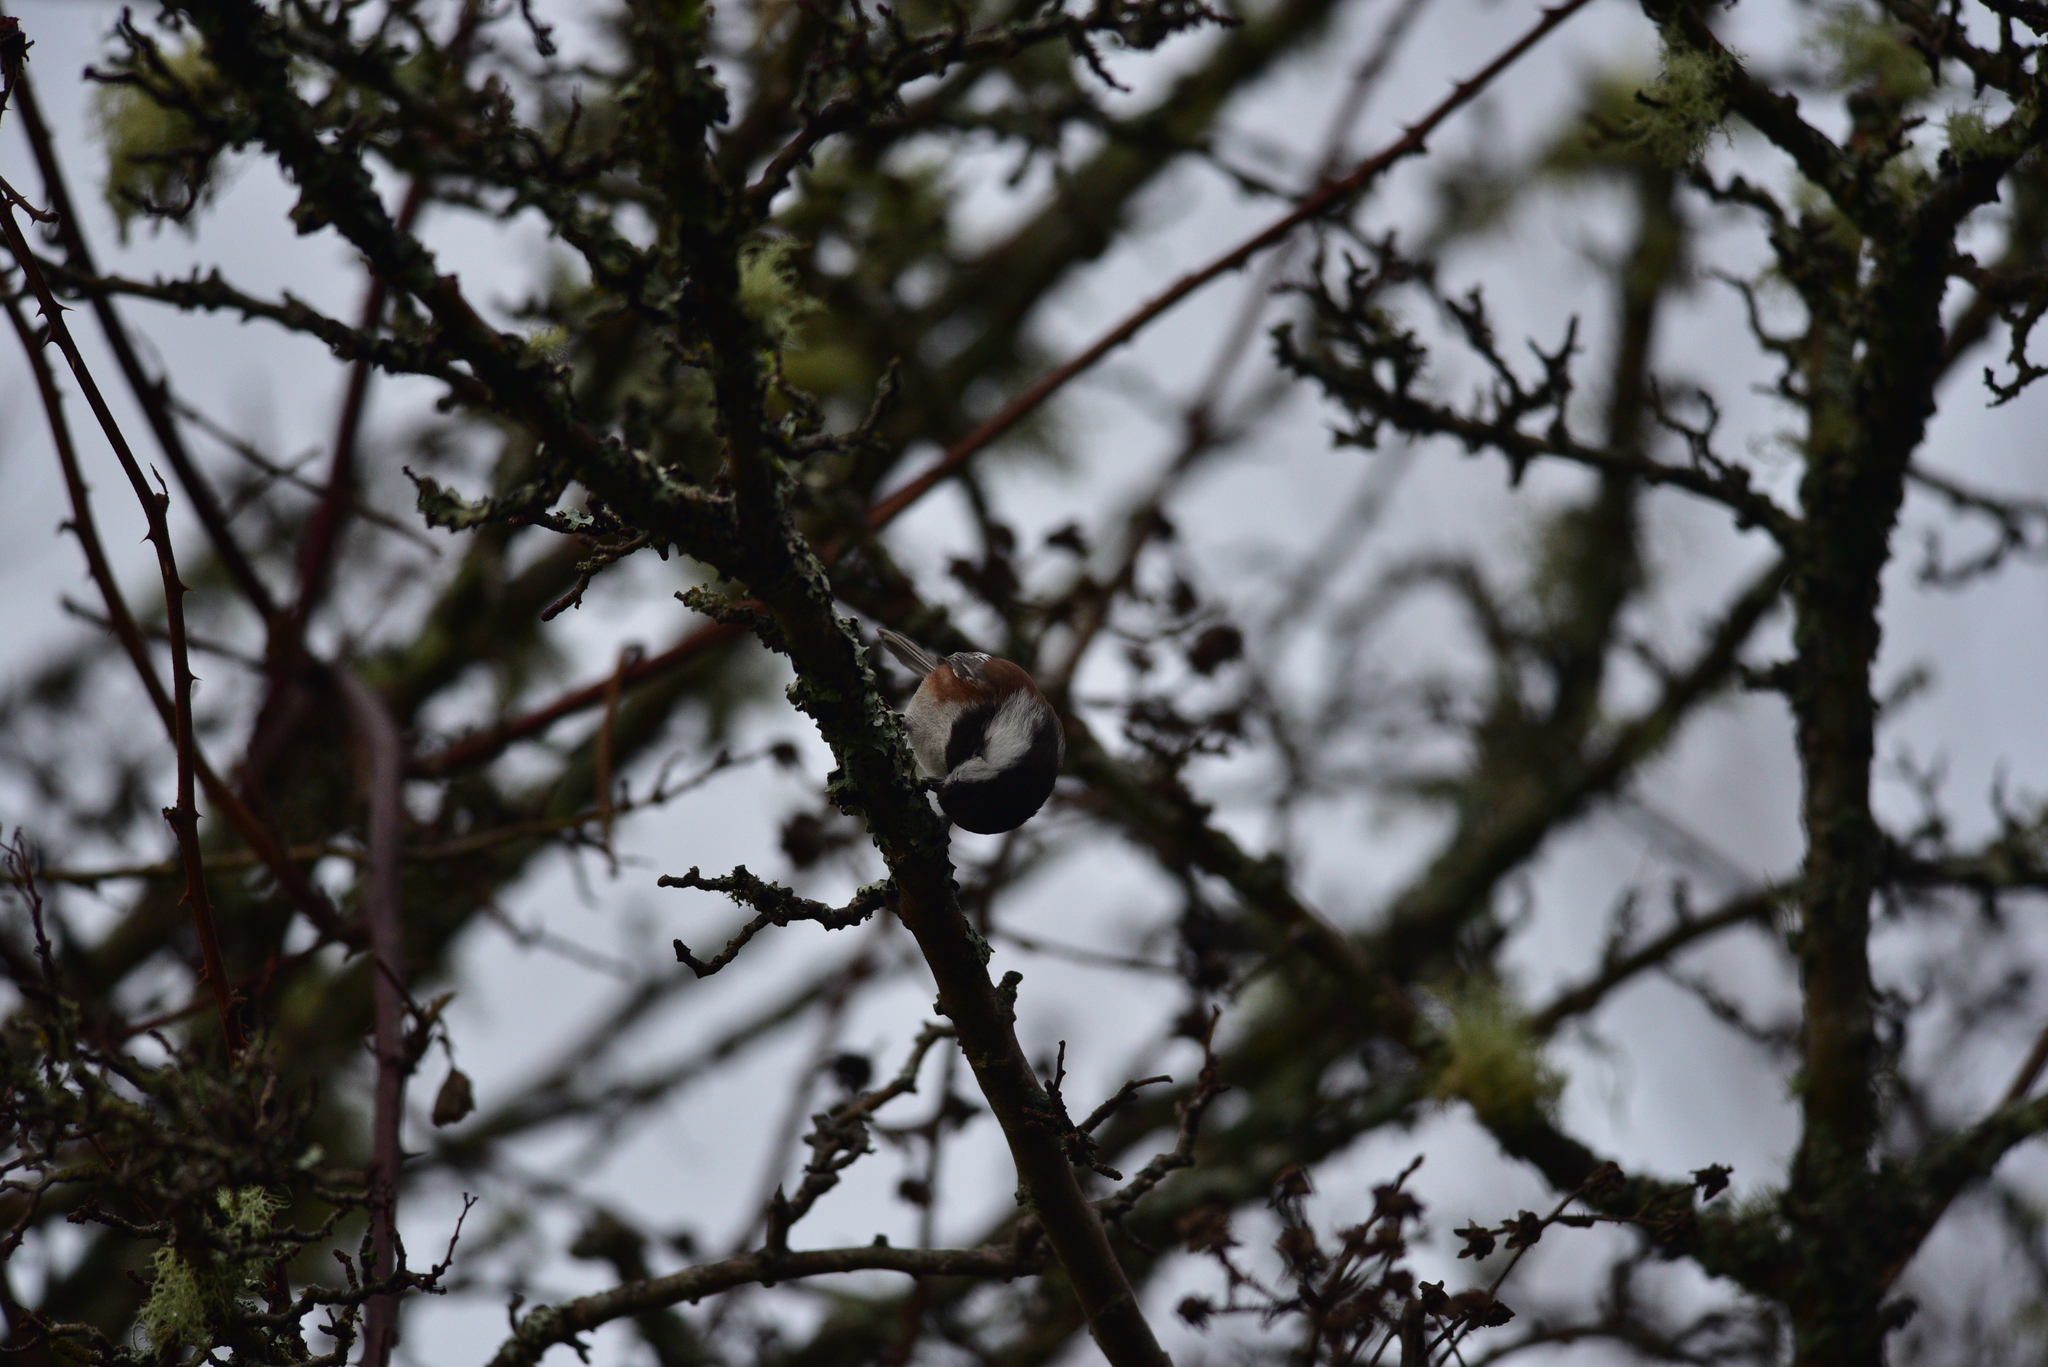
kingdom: Animalia
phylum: Chordata
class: Aves
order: Passeriformes
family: Paridae
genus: Poecile
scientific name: Poecile rufescens
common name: Chestnut-backed chickadee
